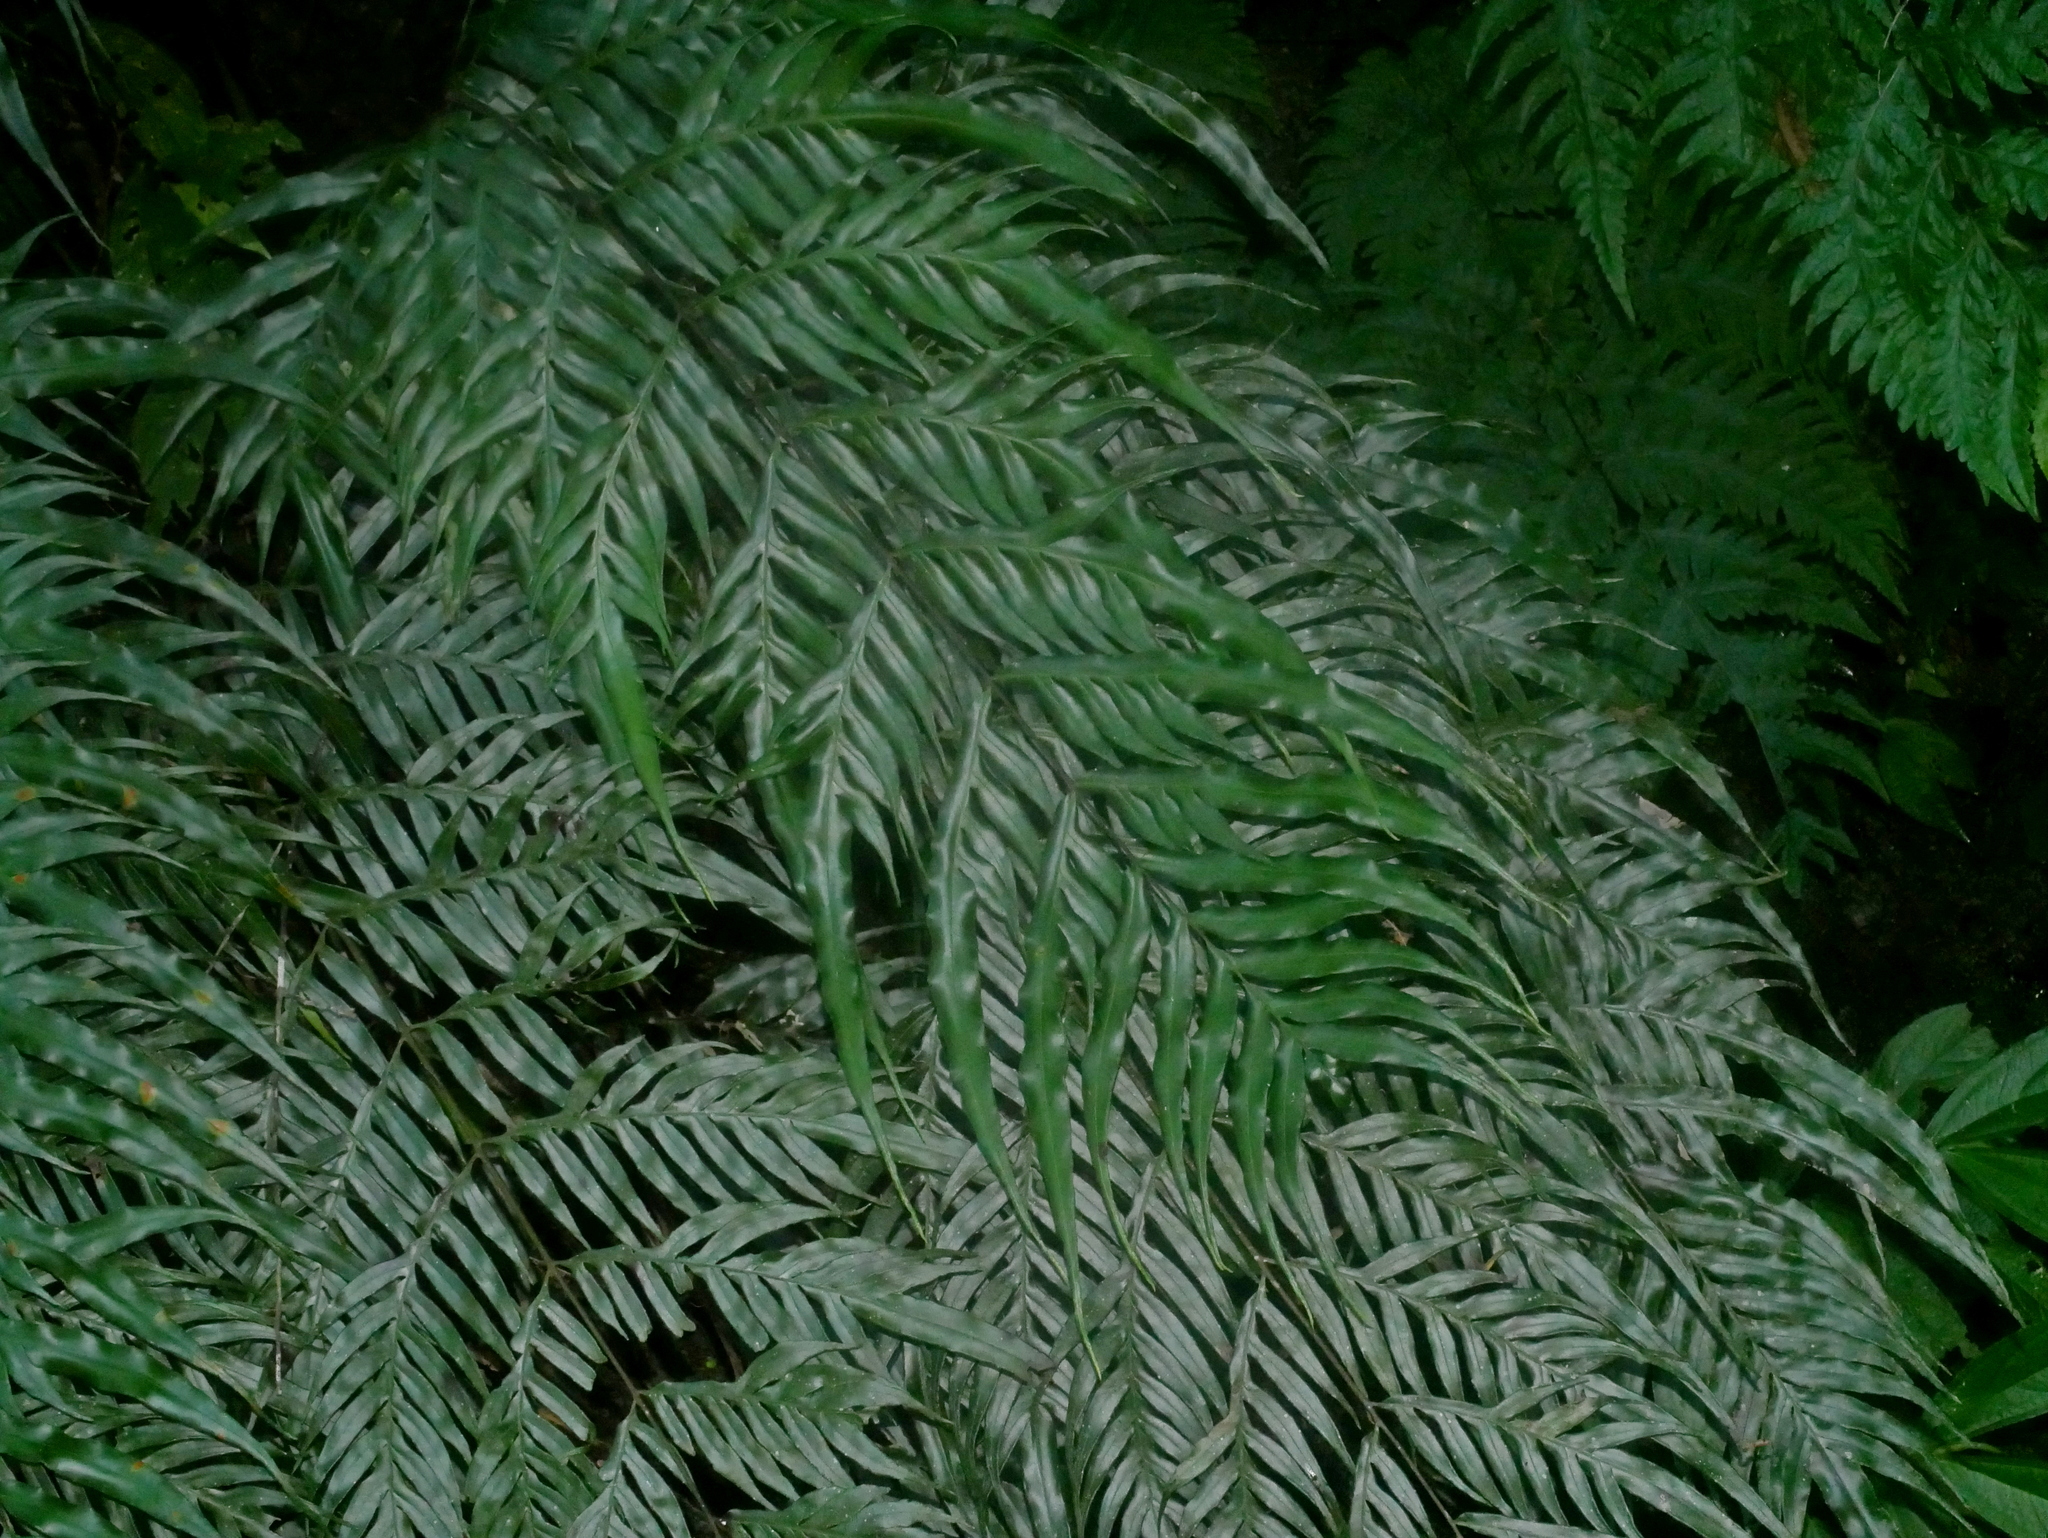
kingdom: Plantae
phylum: Tracheophyta
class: Polypodiopsida
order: Polypodiales
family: Pteridaceae
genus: Pteris
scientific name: Pteris formosana
